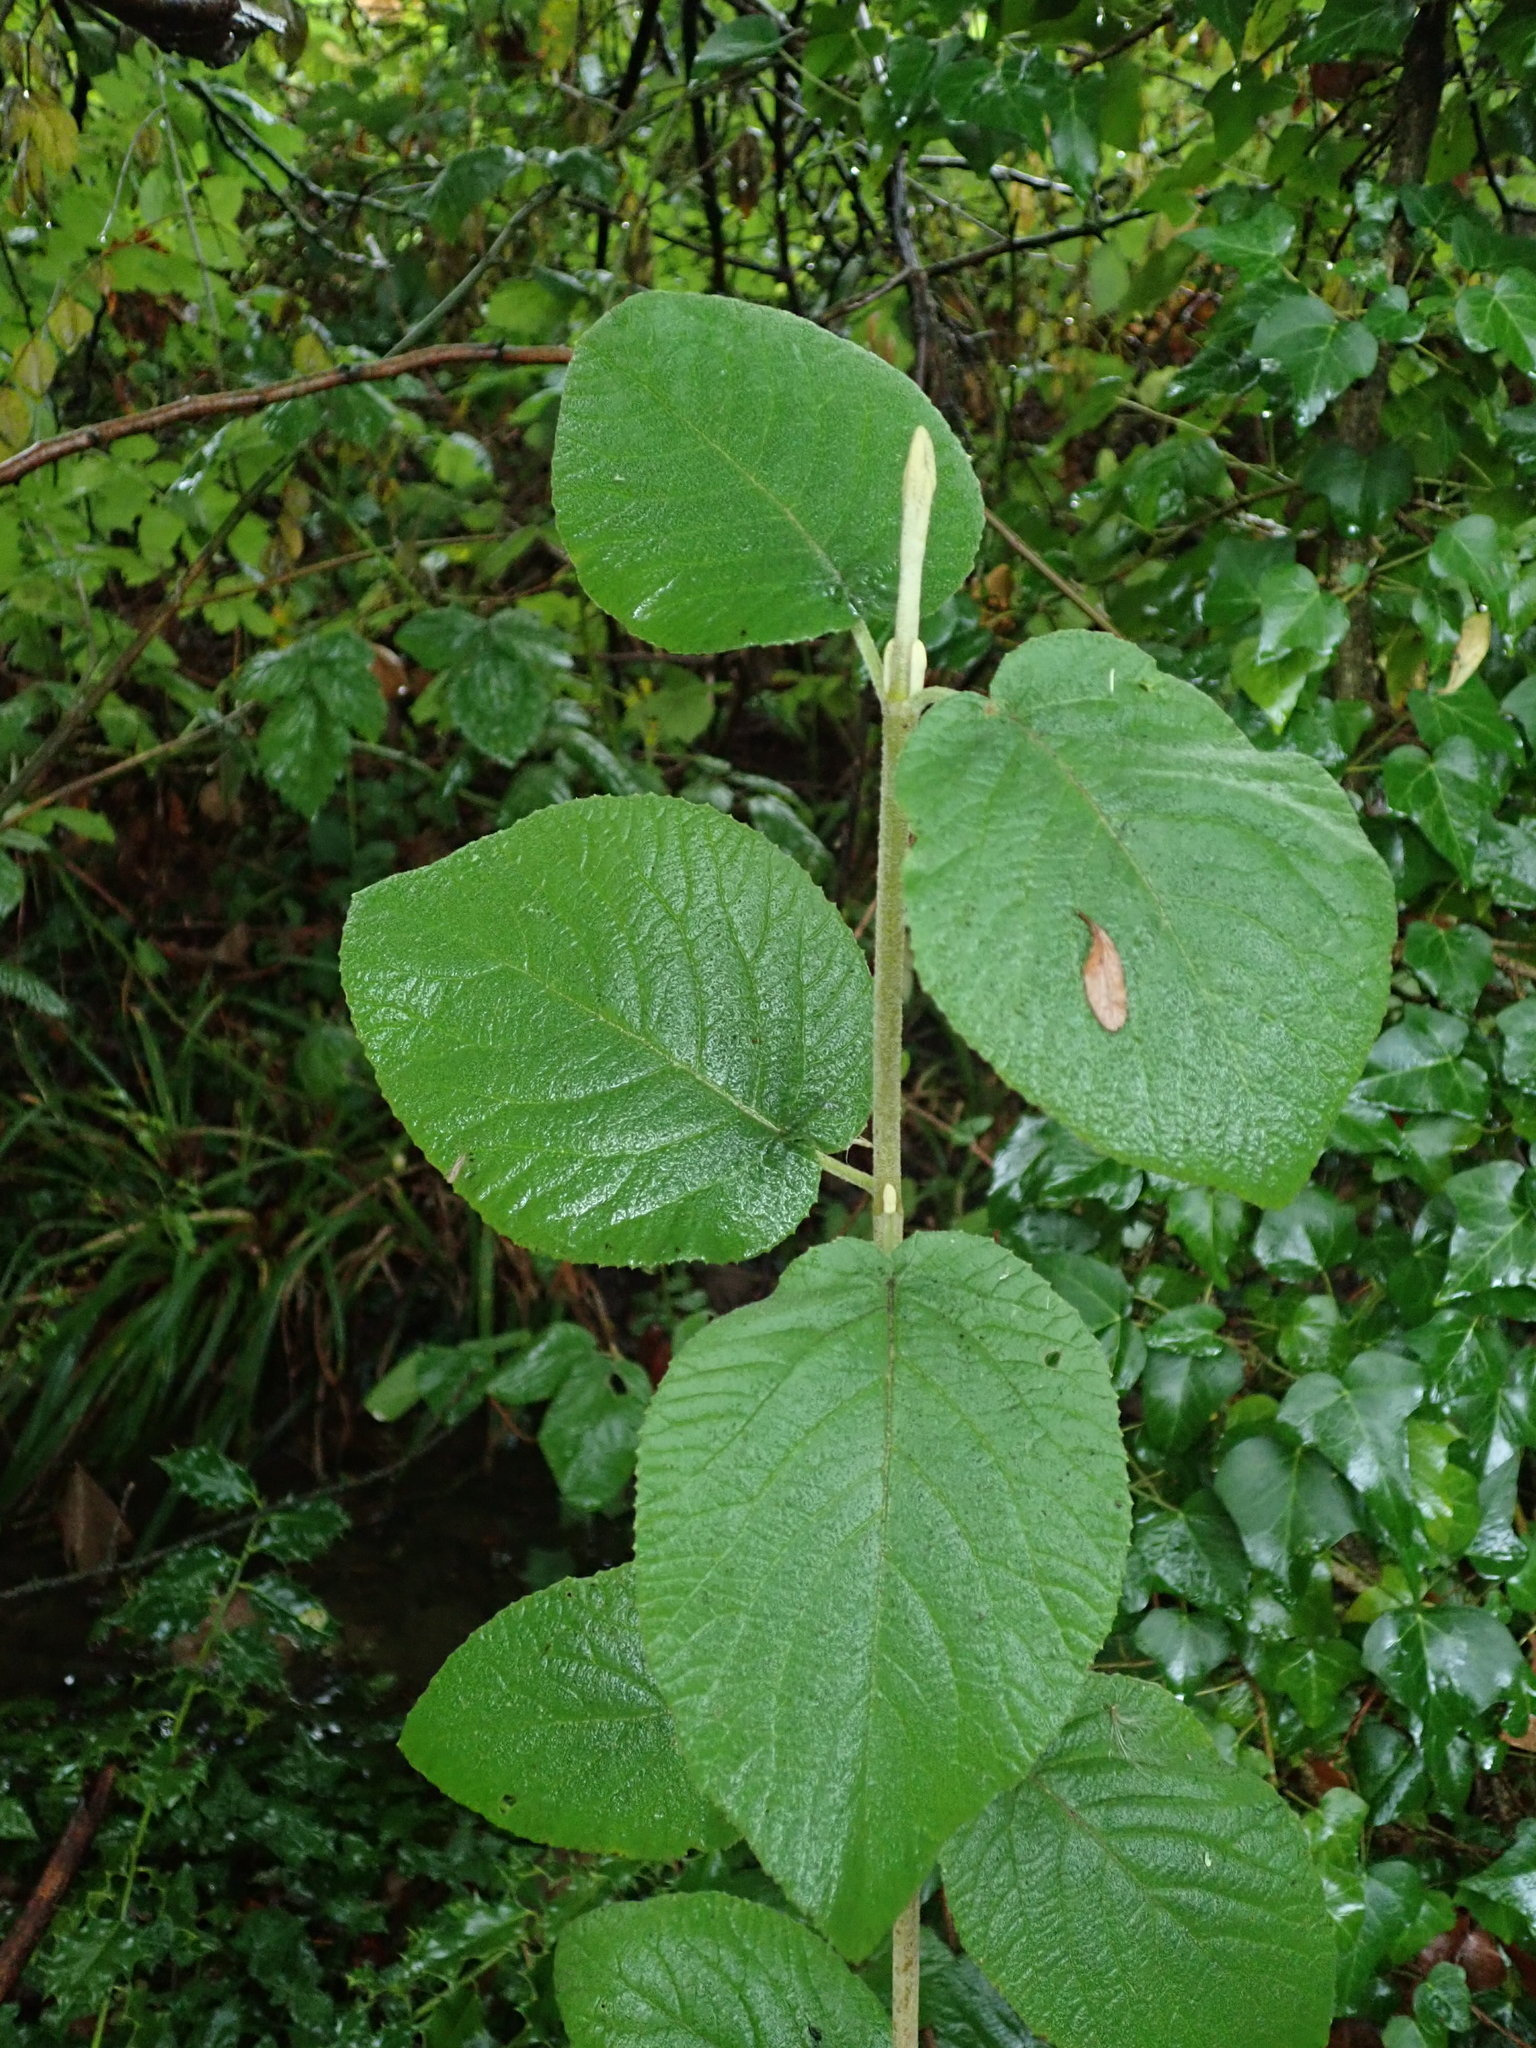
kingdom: Plantae
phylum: Tracheophyta
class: Magnoliopsida
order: Dipsacales
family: Viburnaceae
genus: Viburnum
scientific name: Viburnum lantana
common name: Wayfaring tree
